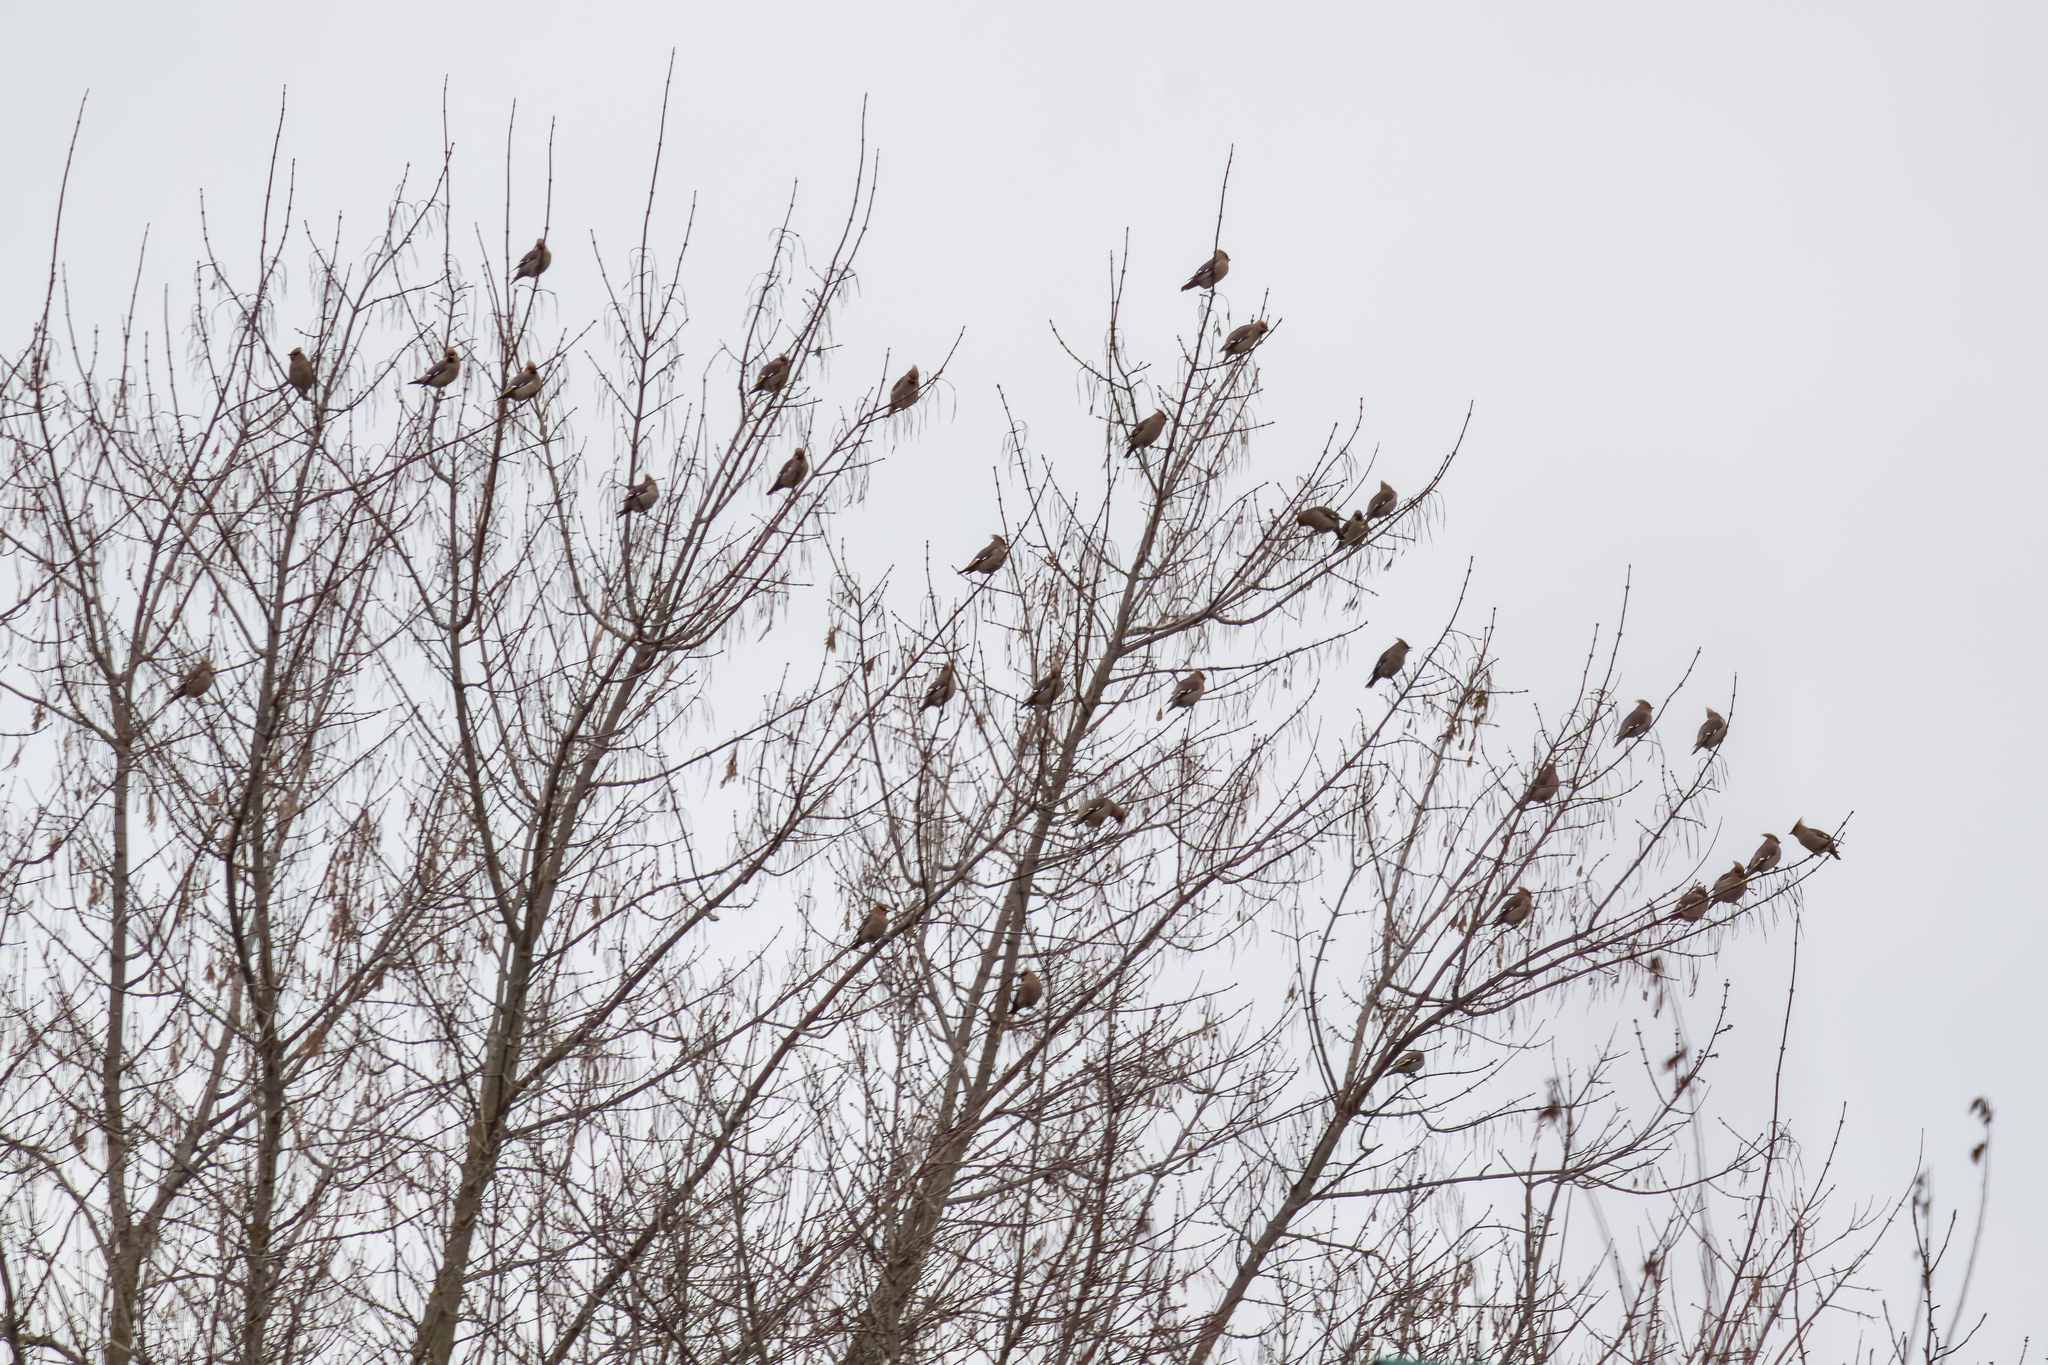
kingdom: Animalia
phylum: Chordata
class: Aves
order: Passeriformes
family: Bombycillidae
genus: Bombycilla
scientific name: Bombycilla garrulus
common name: Bohemian waxwing
